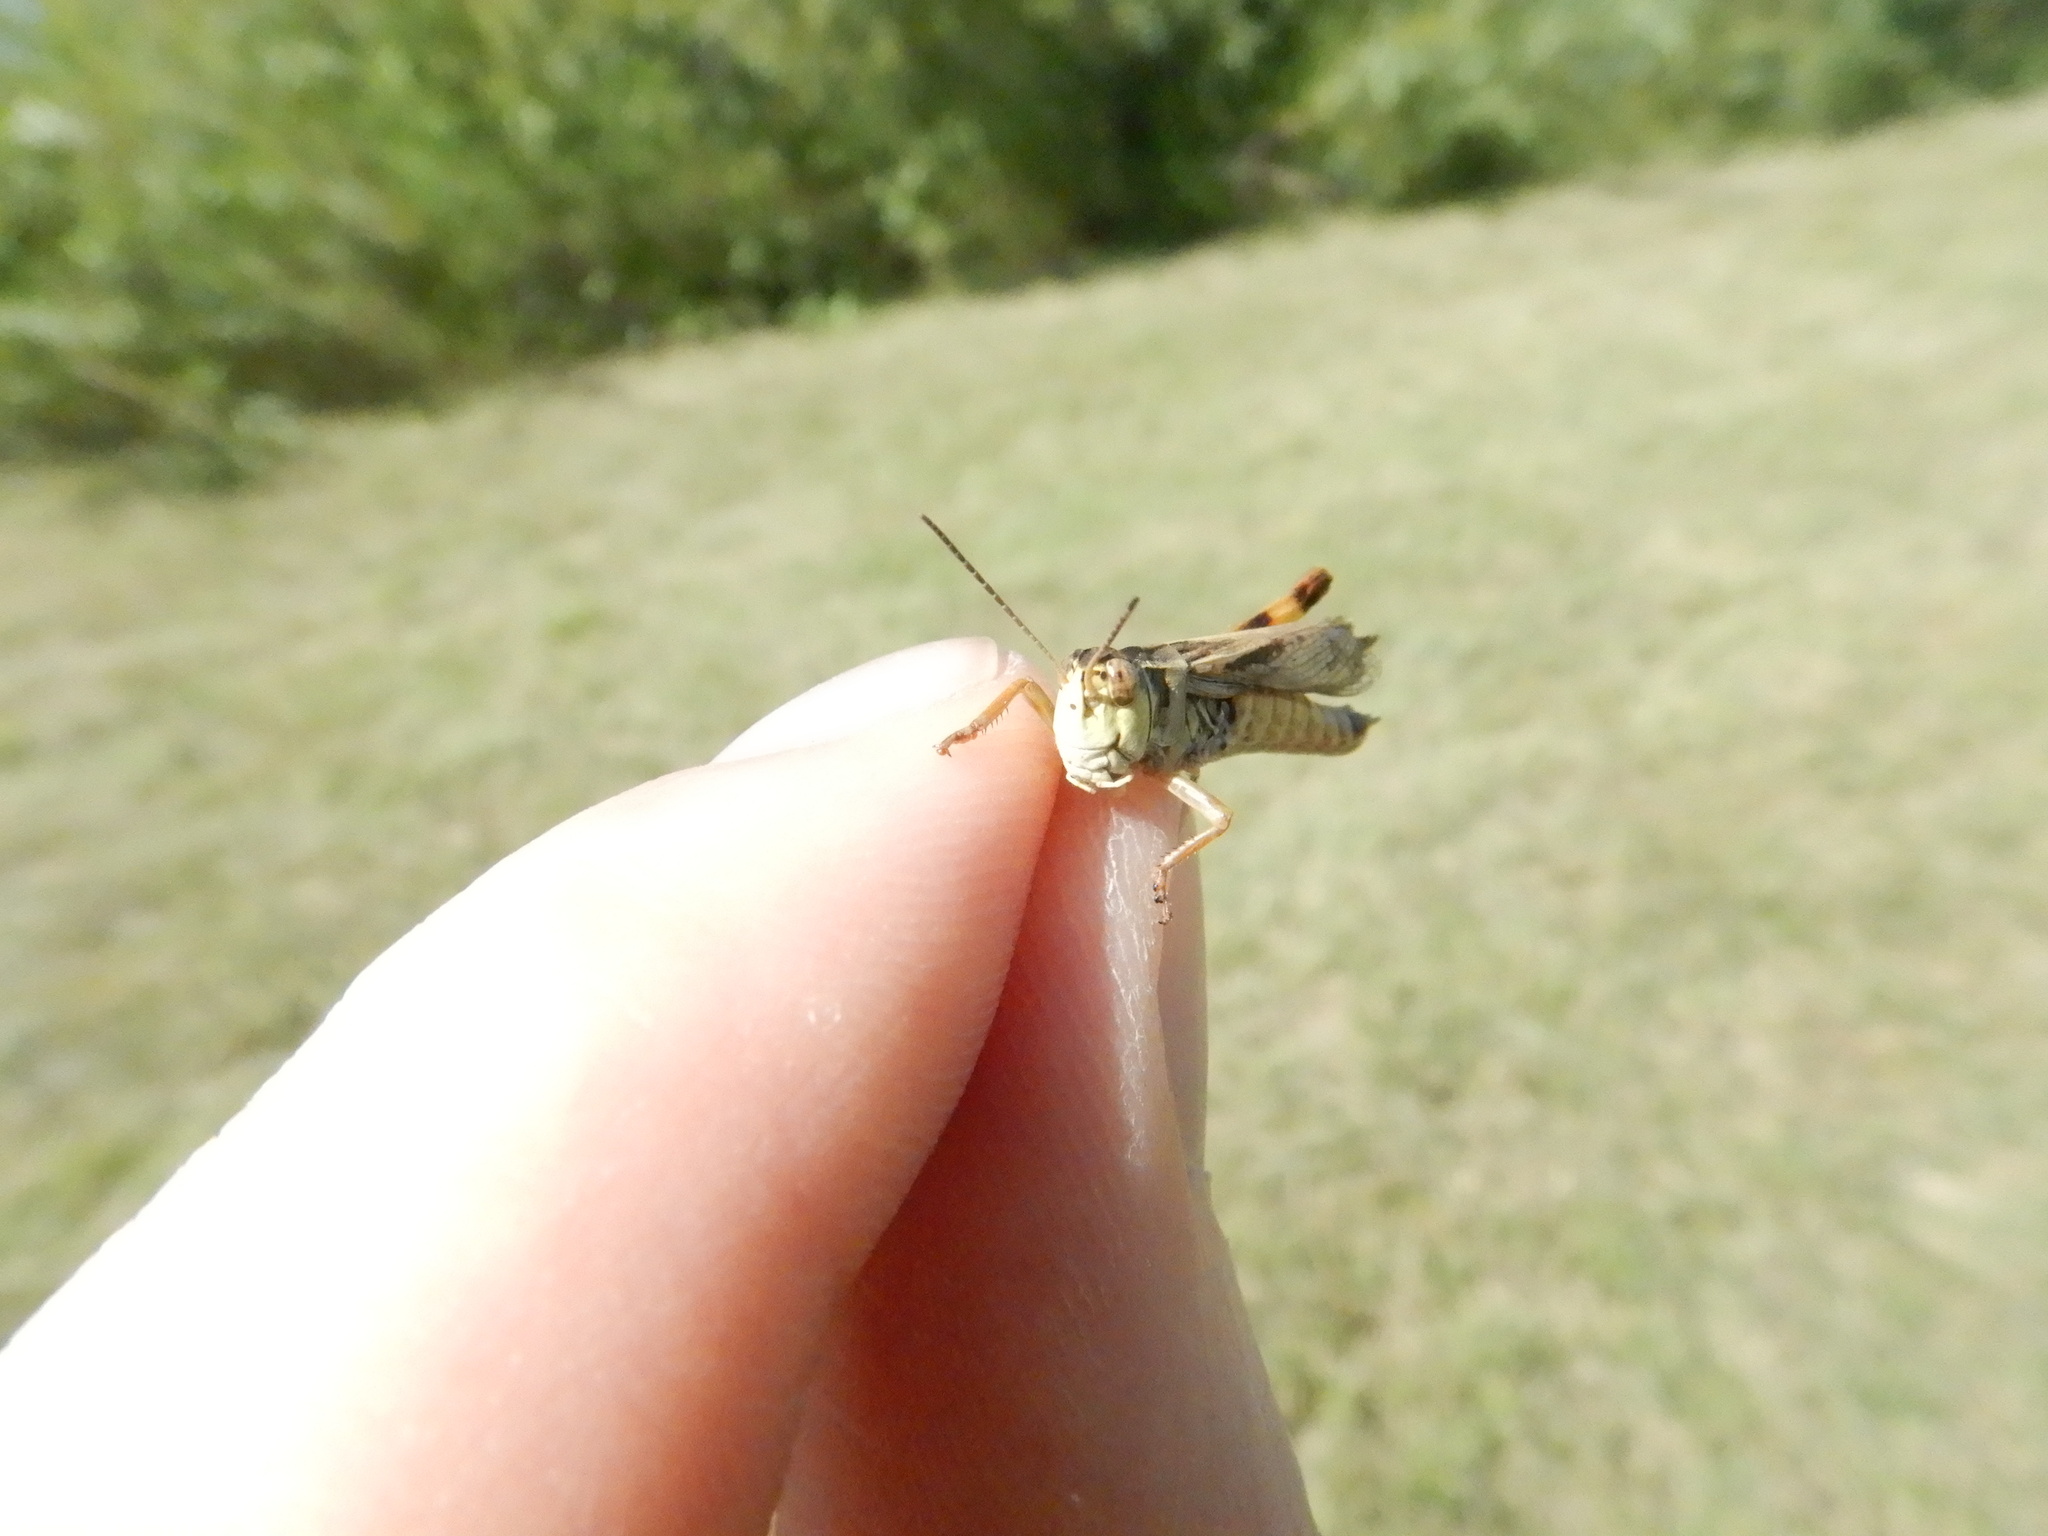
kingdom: Animalia
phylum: Arthropoda
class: Insecta
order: Orthoptera
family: Acrididae
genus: Camnula
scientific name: Camnula pellucida
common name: Clear-winged grasshopper
